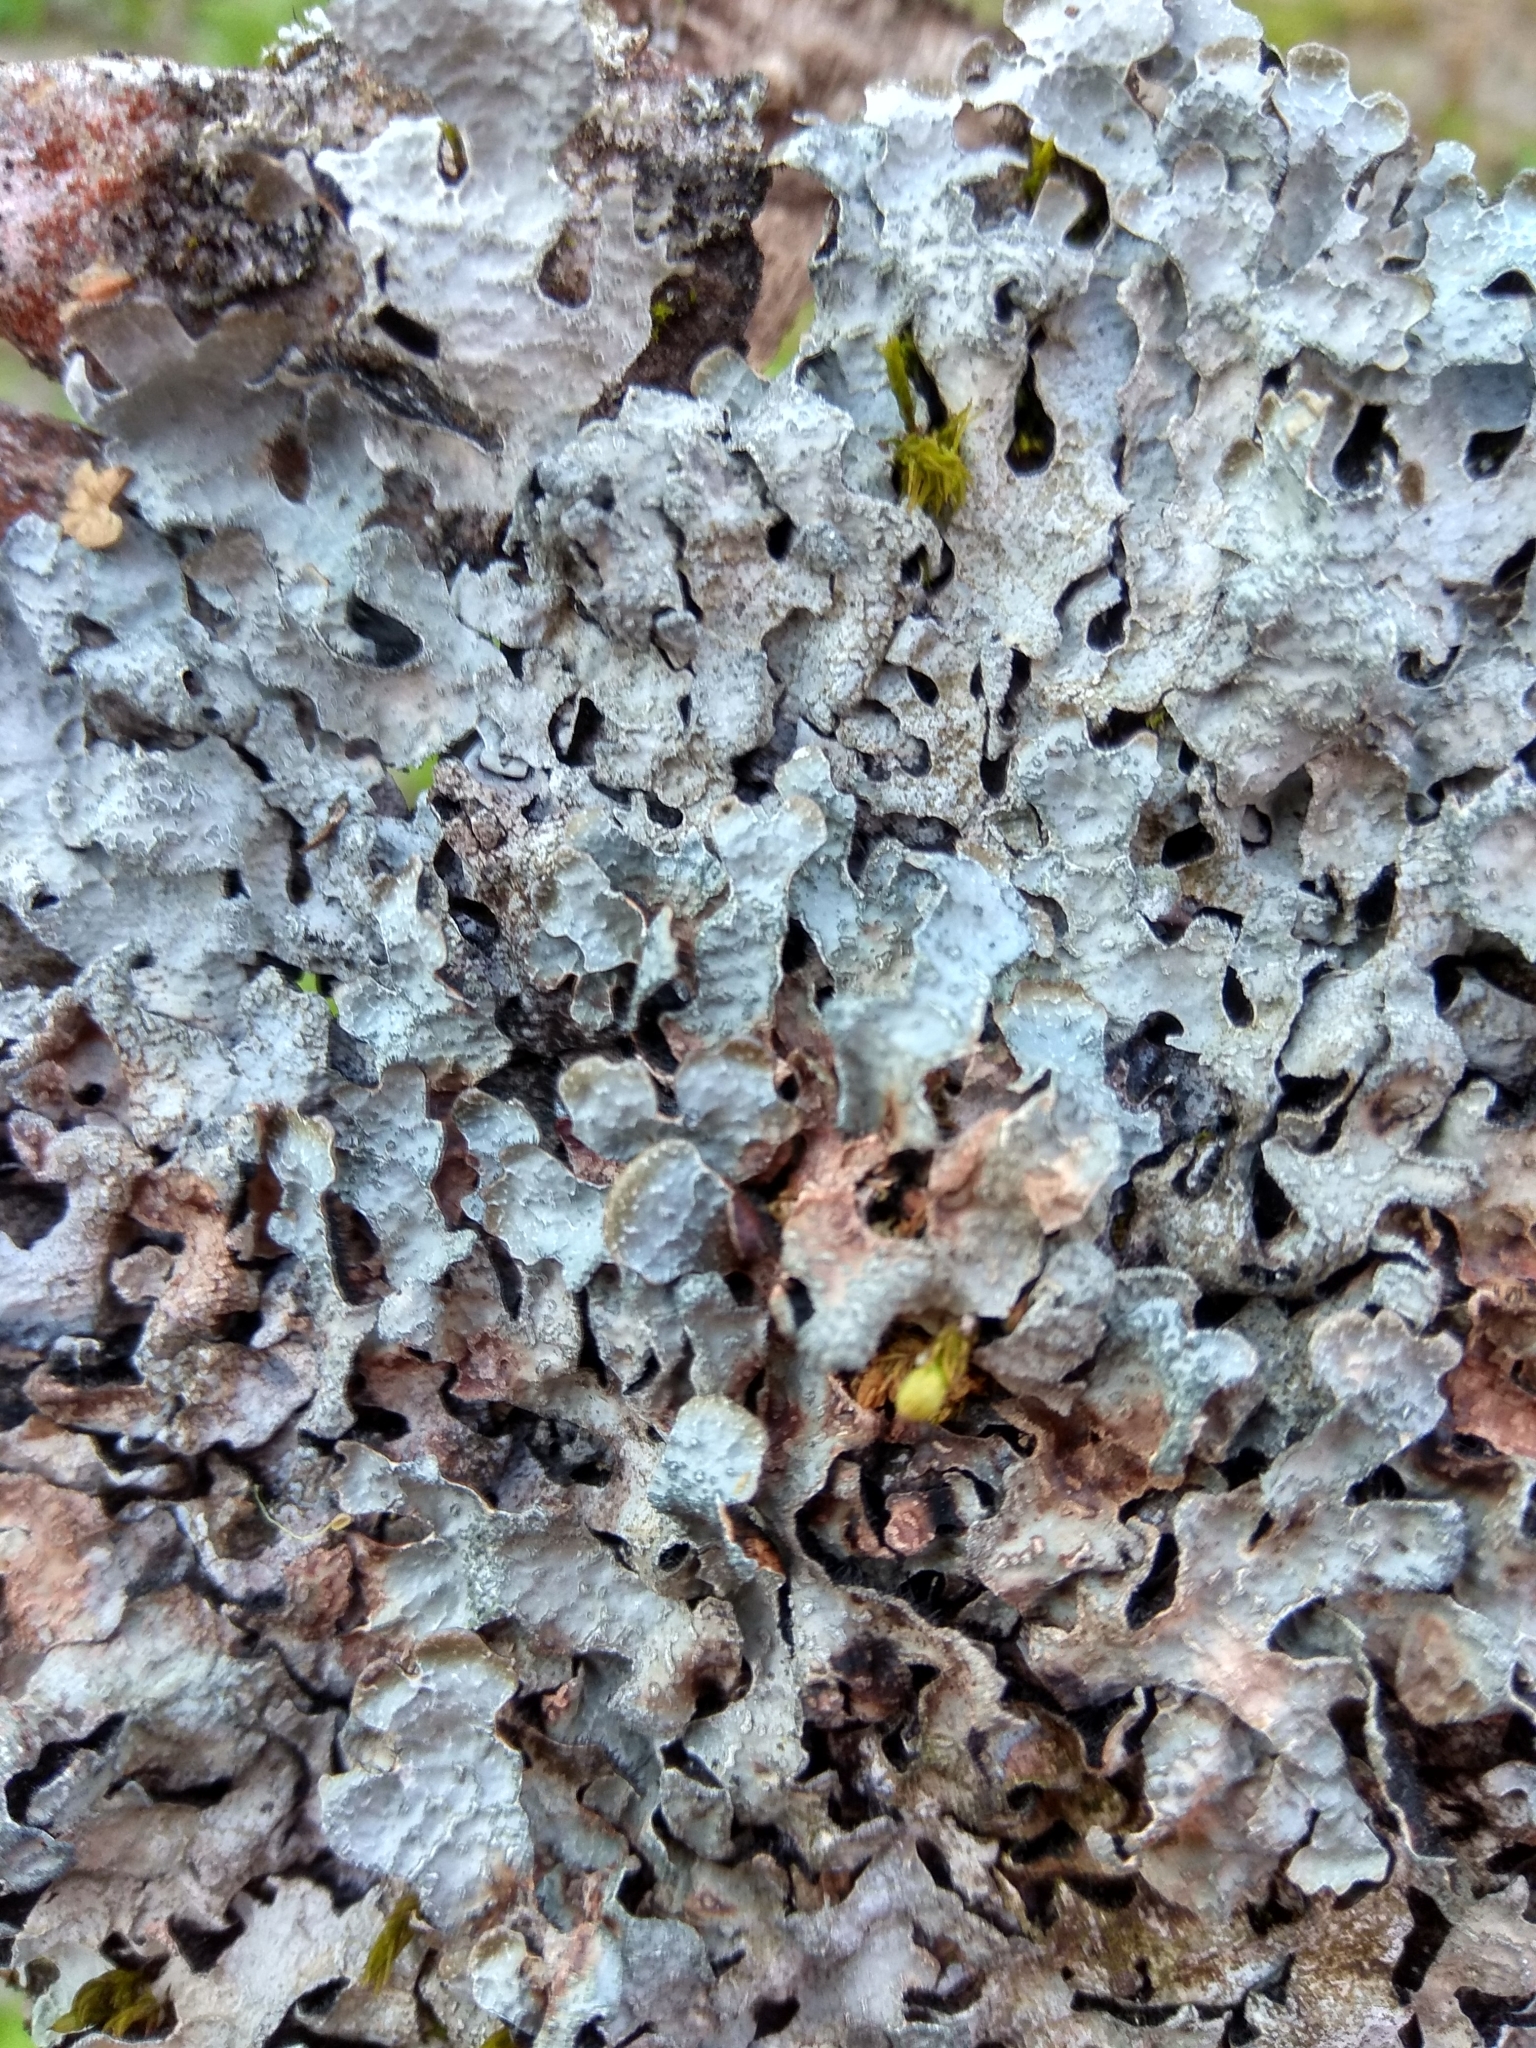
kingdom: Fungi
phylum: Ascomycota
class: Lecanoromycetes
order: Lecanorales
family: Parmeliaceae
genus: Parmelia
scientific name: Parmelia sulcata
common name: Netted shield lichen
